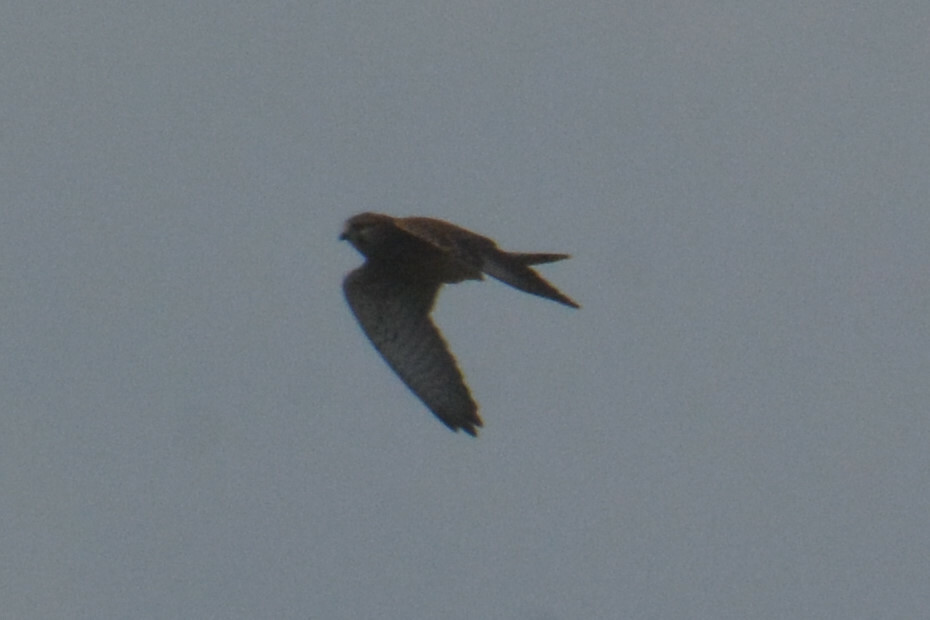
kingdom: Animalia
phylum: Chordata
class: Aves
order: Falconiformes
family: Falconidae
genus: Falco
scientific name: Falco tinnunculus
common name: Common kestrel
